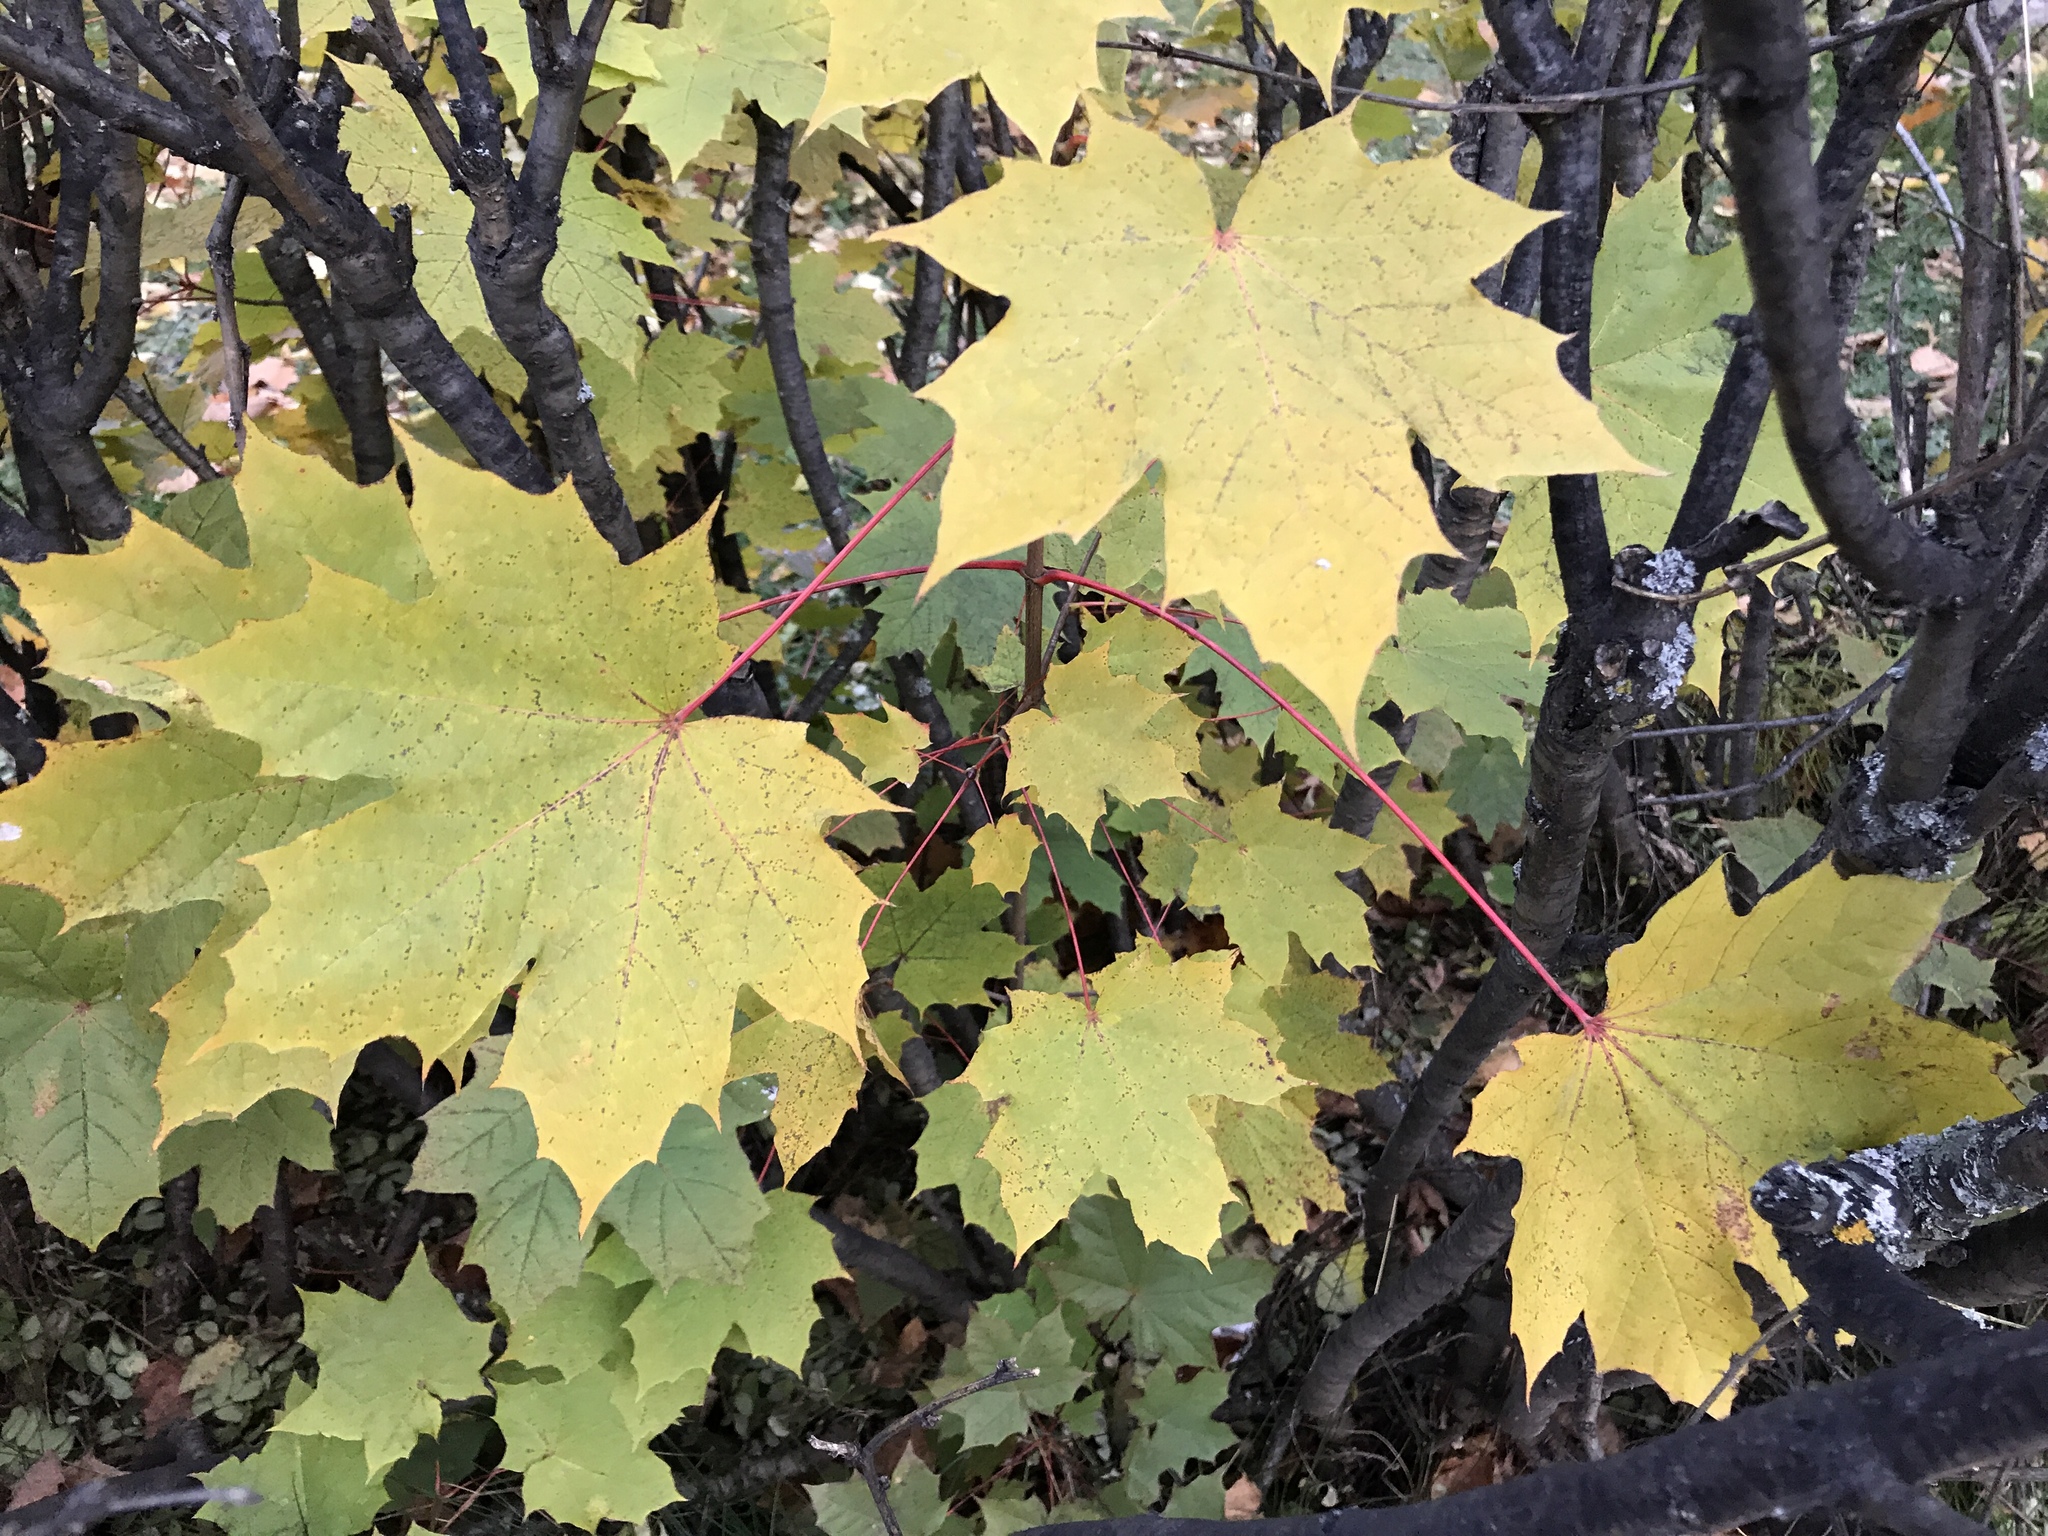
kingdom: Plantae
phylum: Tracheophyta
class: Magnoliopsida
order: Sapindales
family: Sapindaceae
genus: Acer
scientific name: Acer platanoides
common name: Norway maple
